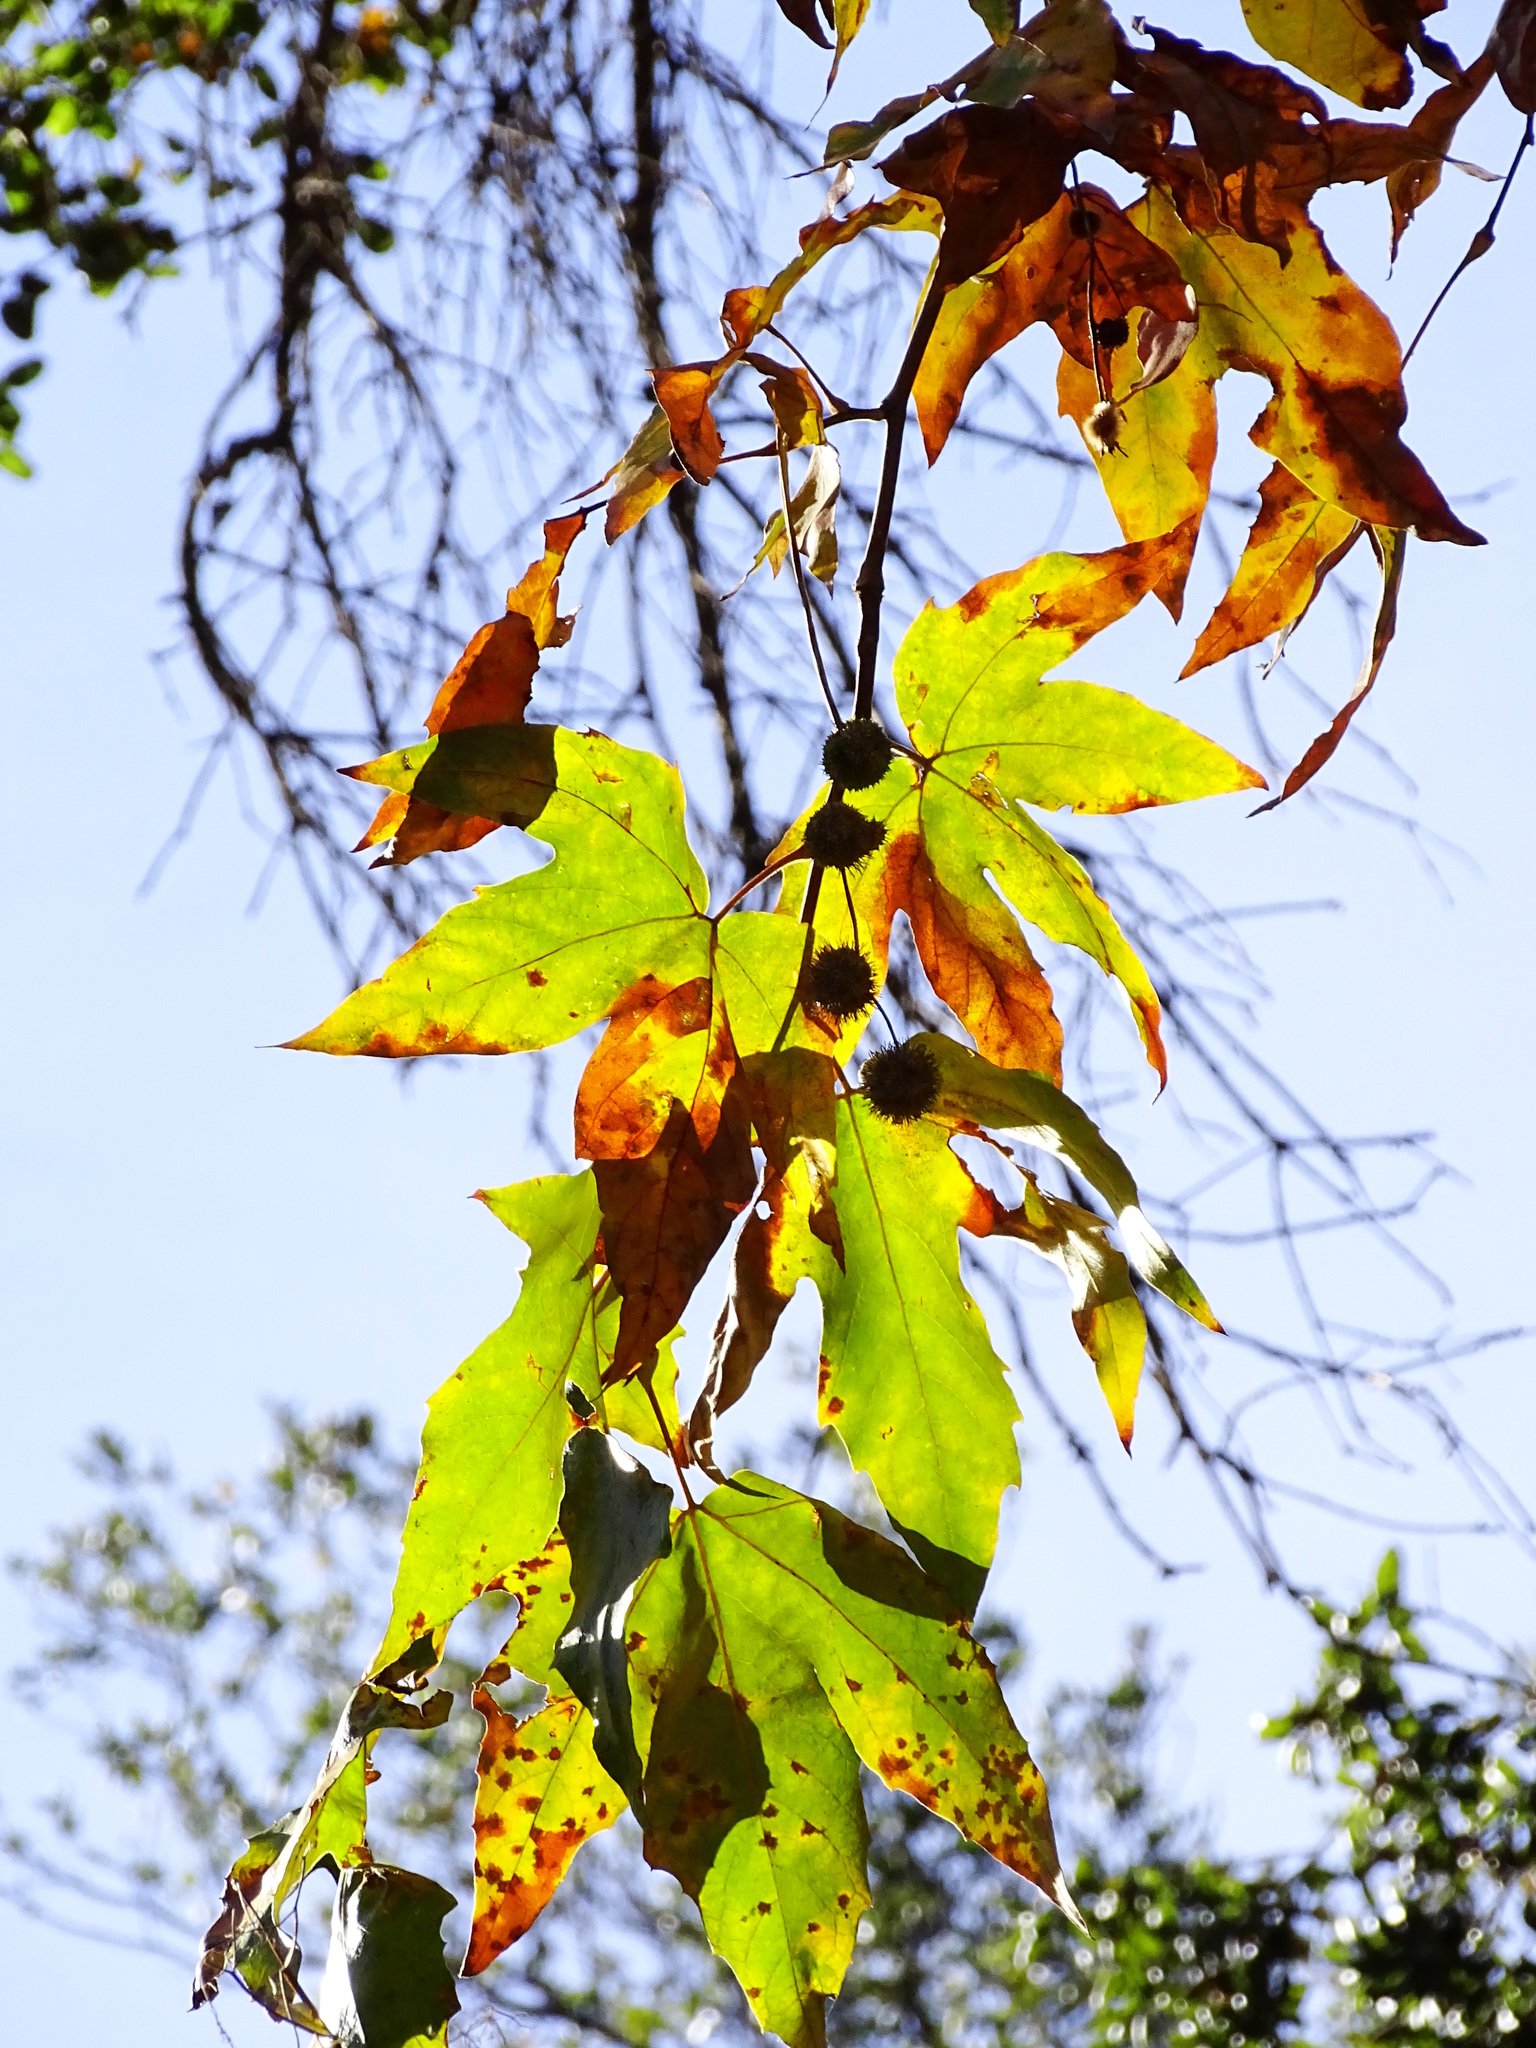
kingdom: Plantae
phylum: Tracheophyta
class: Magnoliopsida
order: Proteales
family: Platanaceae
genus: Platanus
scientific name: Platanus racemosa
